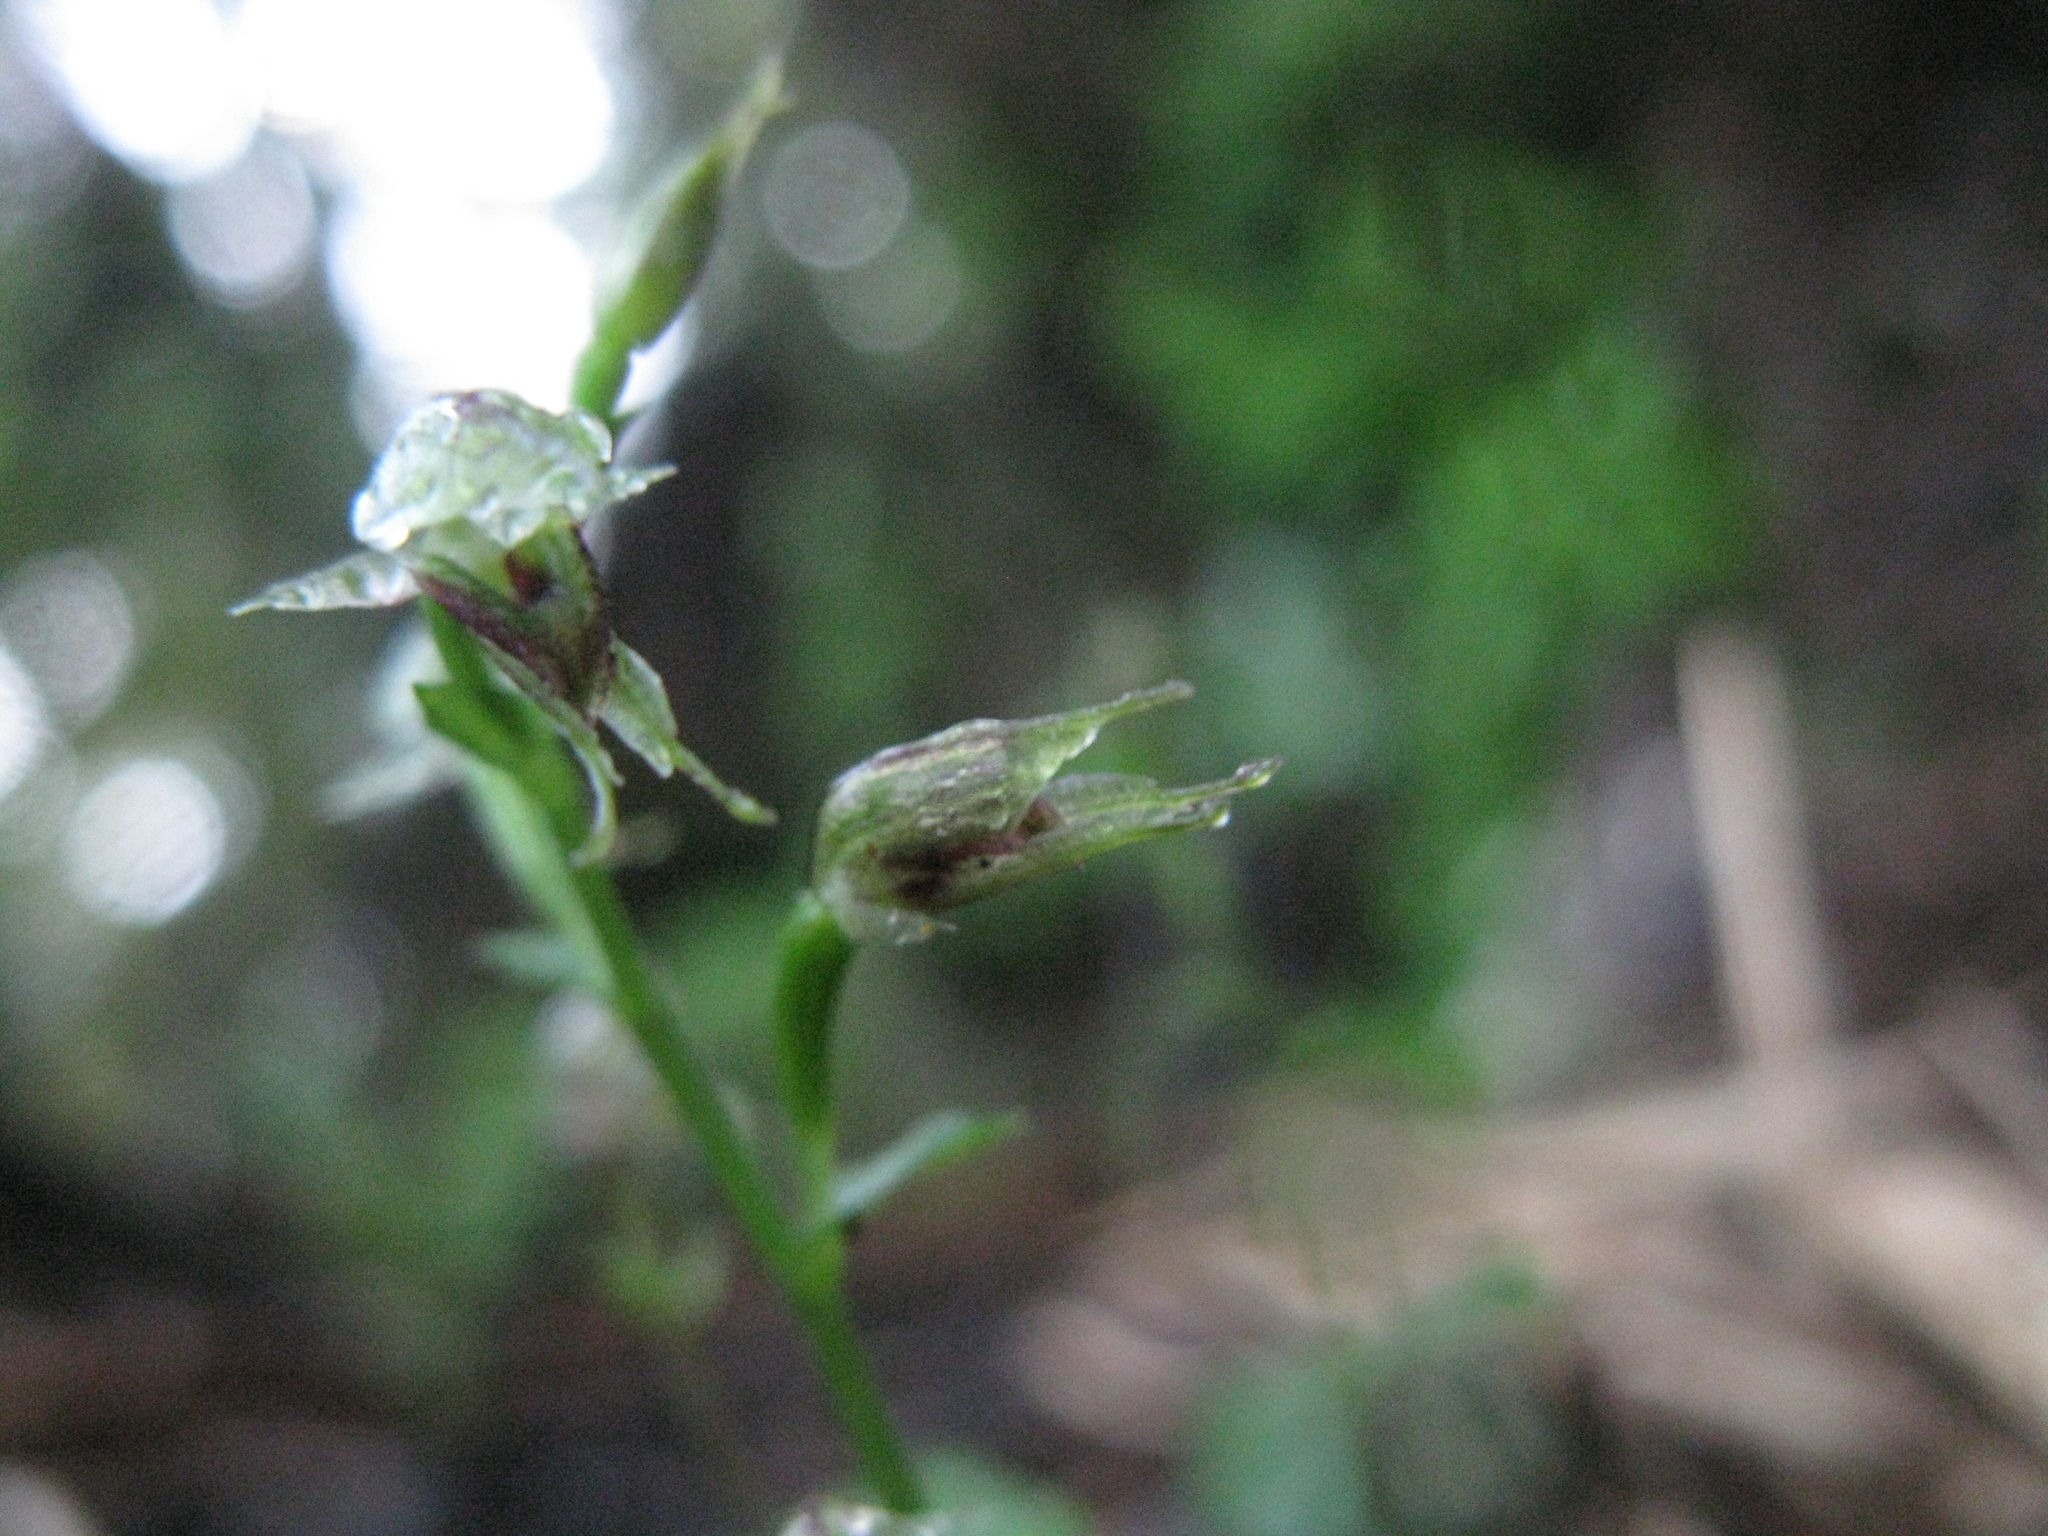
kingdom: Plantae
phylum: Tracheophyta
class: Liliopsida
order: Asparagales
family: Orchidaceae
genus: Acianthus
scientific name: Acianthus sinclairii
